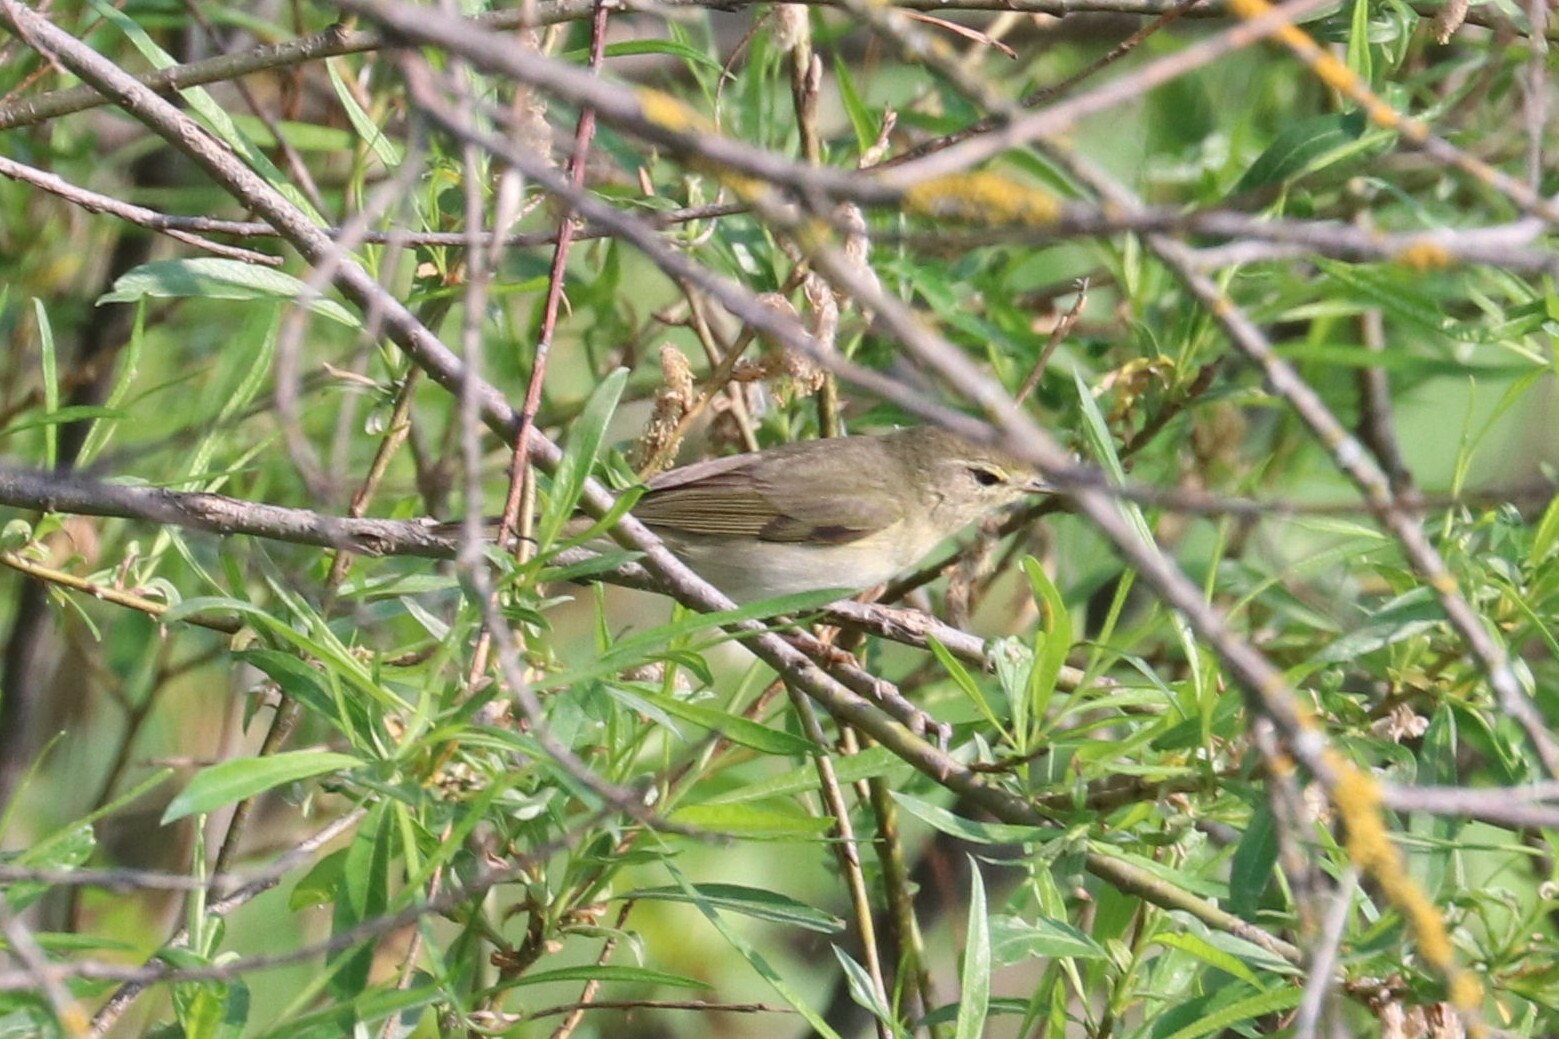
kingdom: Animalia
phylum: Chordata
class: Aves
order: Passeriformes
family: Phylloscopidae
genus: Phylloscopus
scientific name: Phylloscopus trochilus
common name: Willow warbler
